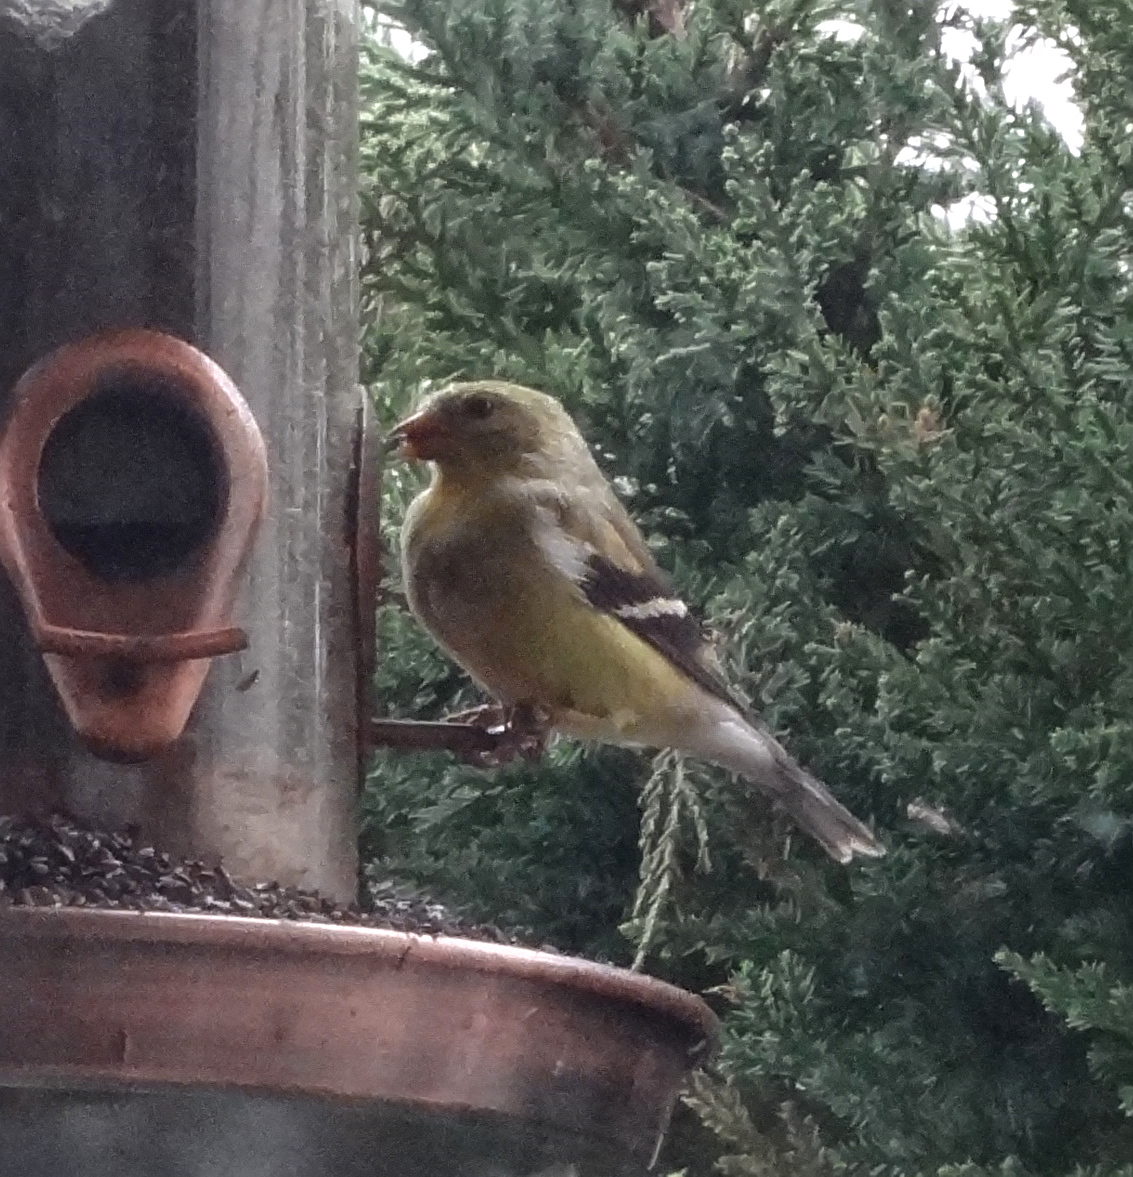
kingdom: Animalia
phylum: Chordata
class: Aves
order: Passeriformes
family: Fringillidae
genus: Spinus
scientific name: Spinus tristis
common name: American goldfinch
